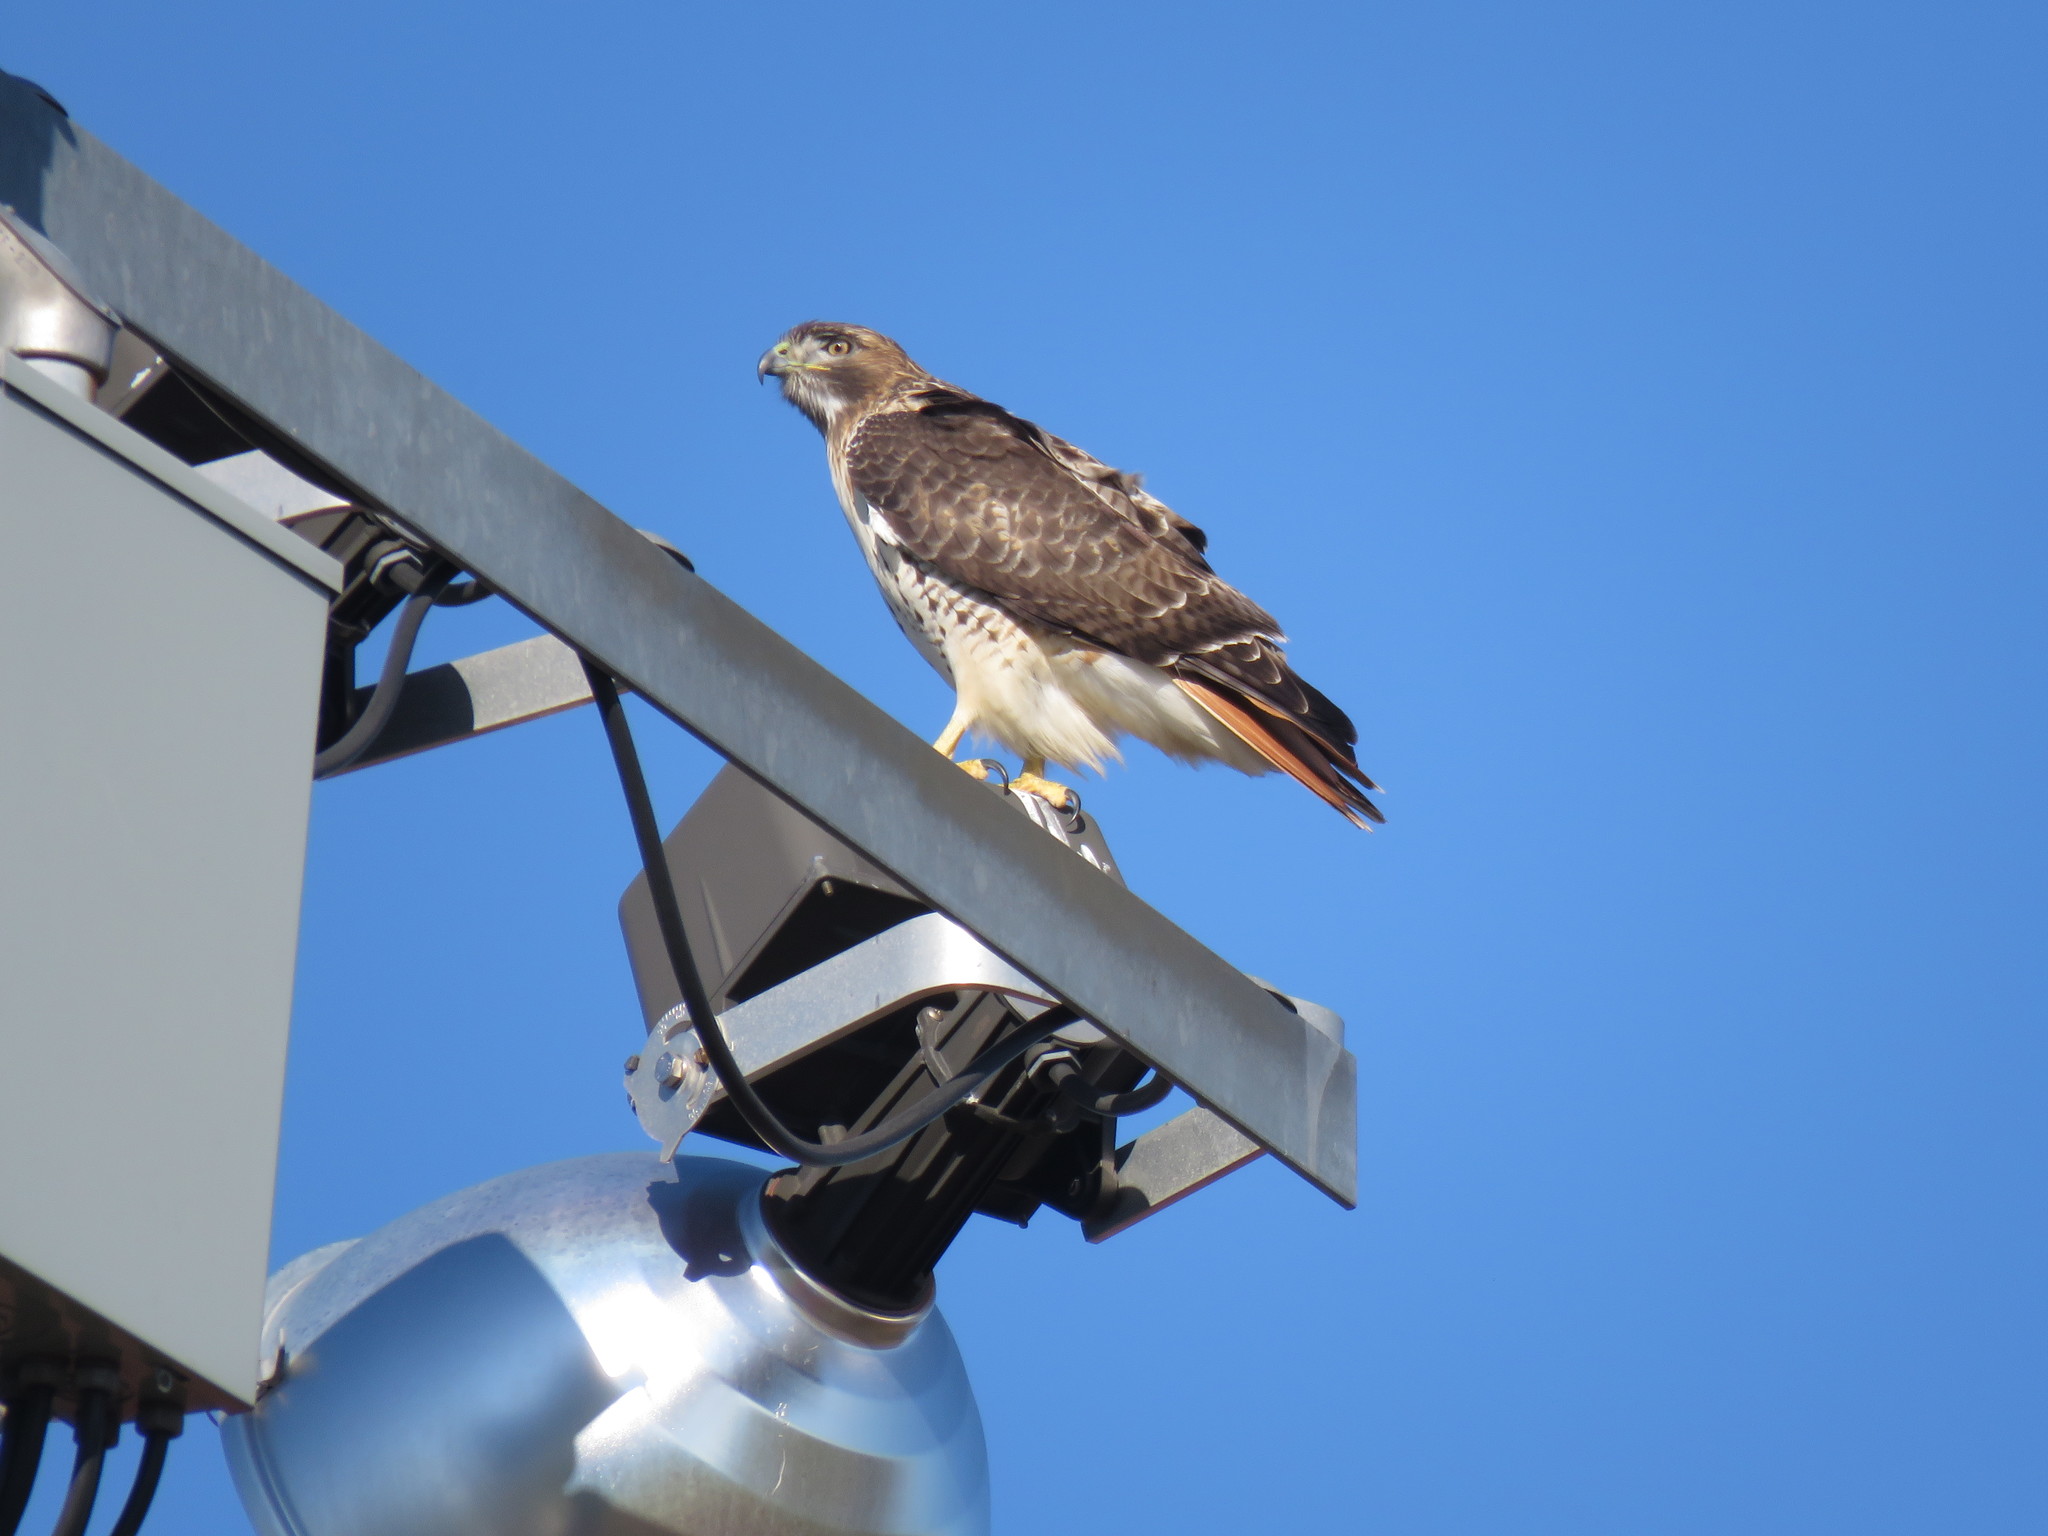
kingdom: Animalia
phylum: Chordata
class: Aves
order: Accipitriformes
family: Accipitridae
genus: Buteo
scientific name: Buteo jamaicensis
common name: Red-tailed hawk
